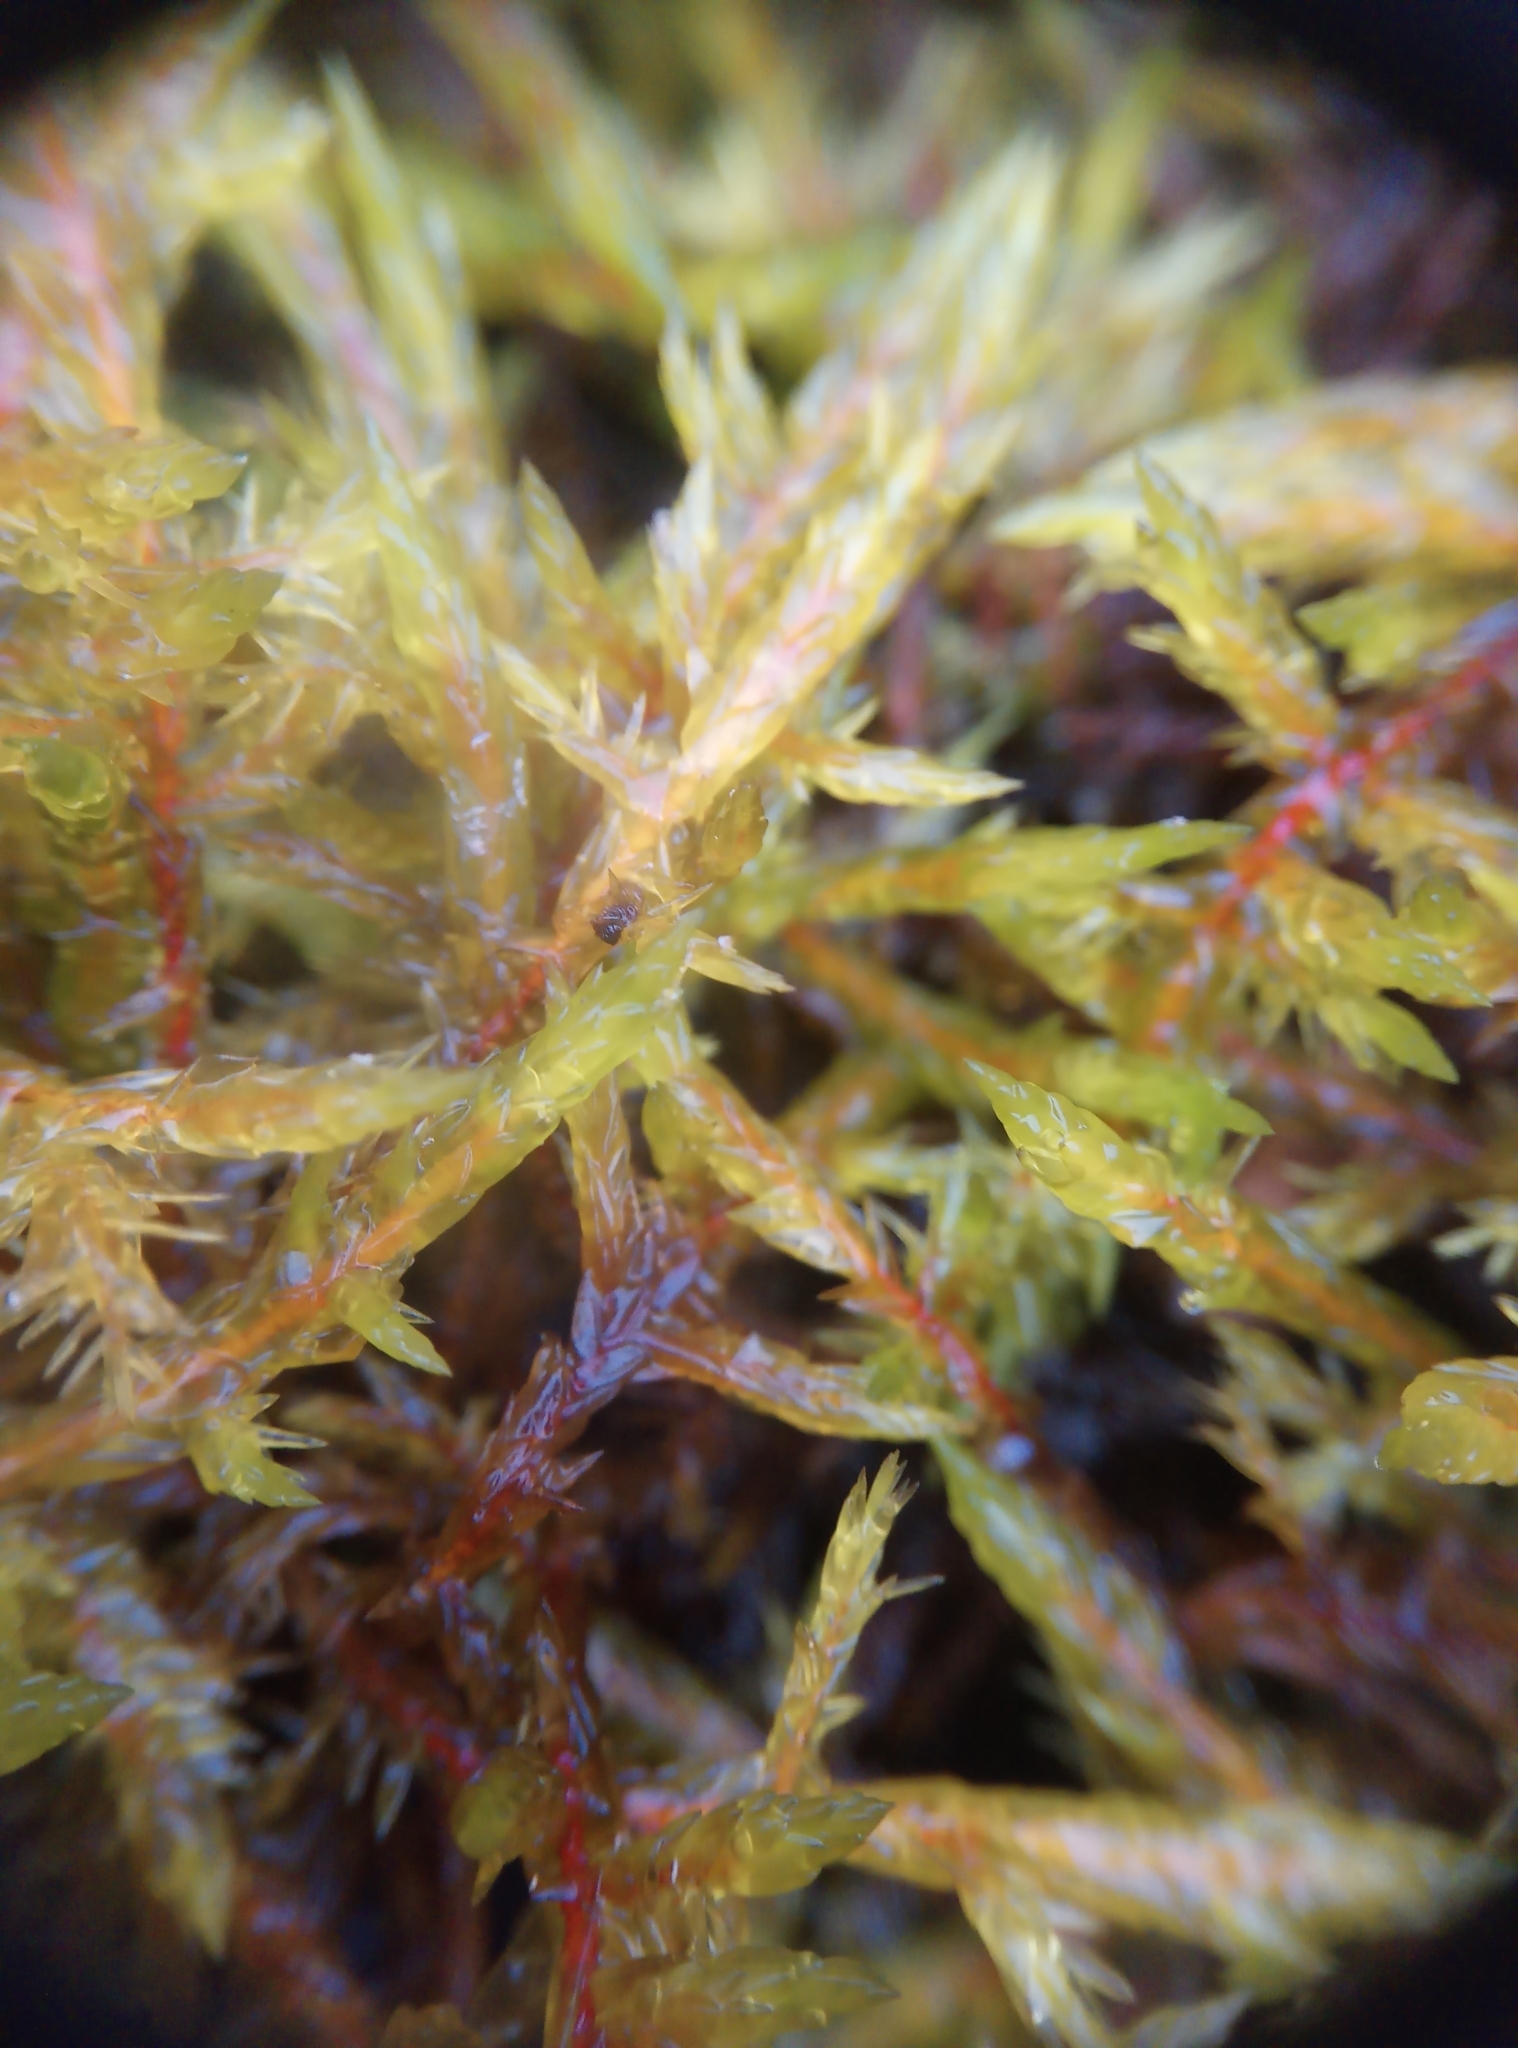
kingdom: Plantae
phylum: Bryophyta
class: Bryopsida
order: Hypnales
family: Pylaisiaceae
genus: Calliergonella
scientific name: Calliergonella cuspidata
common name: Common large wetland moss
